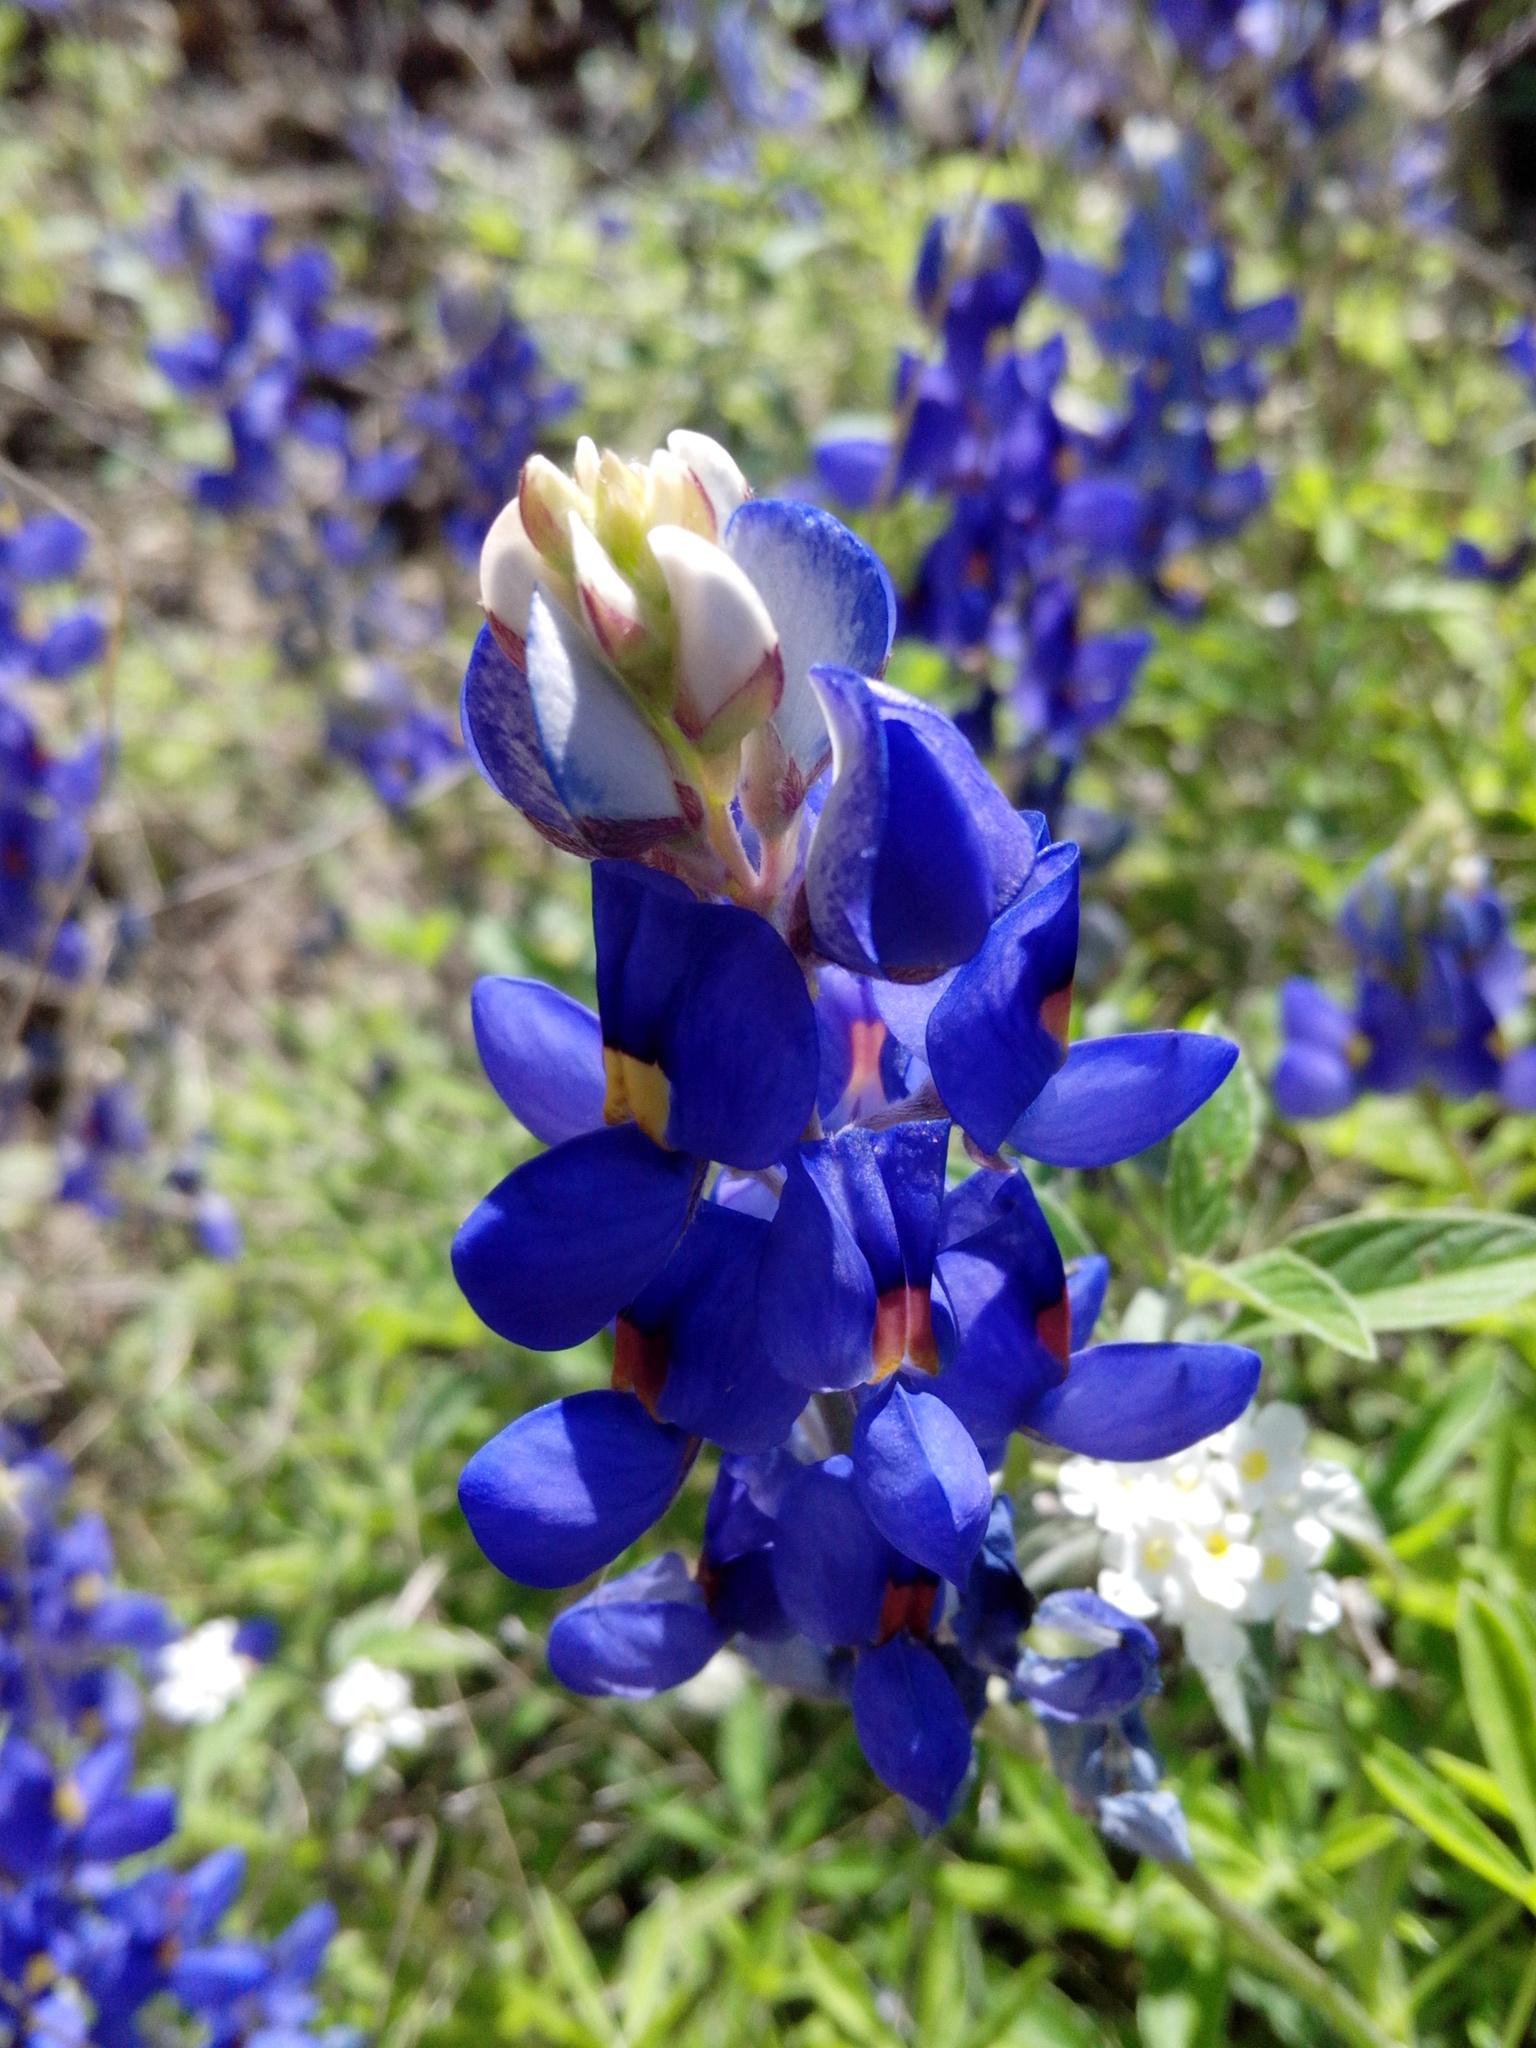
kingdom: Plantae
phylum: Tracheophyta
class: Magnoliopsida
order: Fabales
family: Fabaceae
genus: Lupinus
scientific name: Lupinus texensis
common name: Texas bluebonnet
